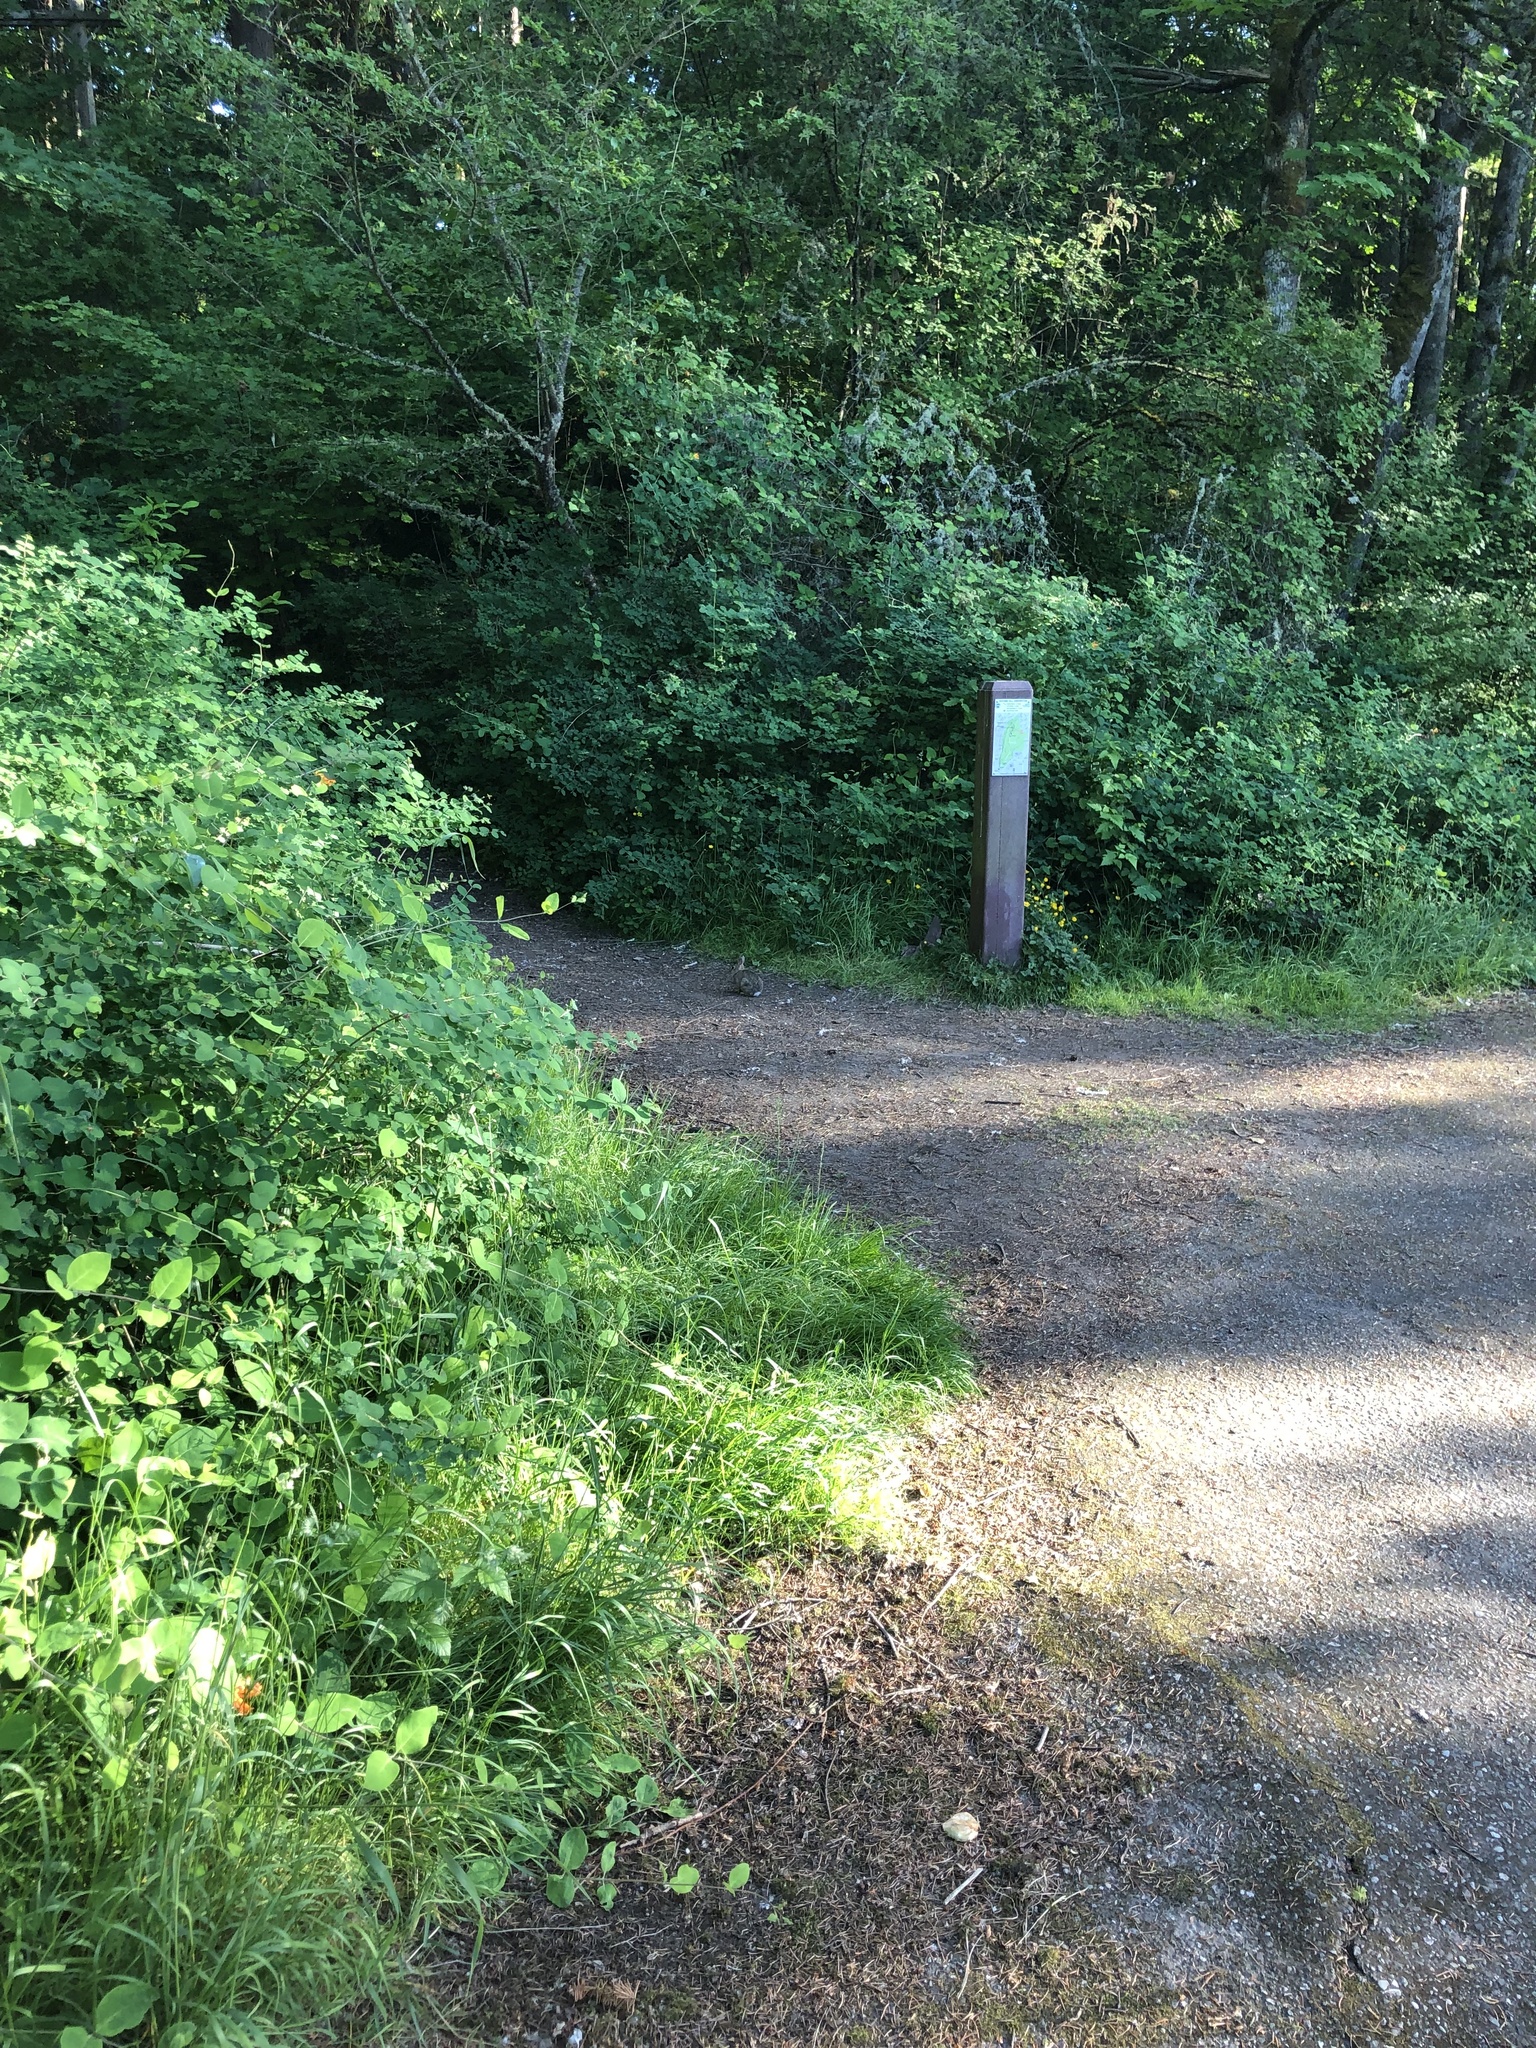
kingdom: Animalia
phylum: Chordata
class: Mammalia
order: Lagomorpha
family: Leporidae
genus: Sylvilagus
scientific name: Sylvilagus floridanus
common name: Eastern cottontail
